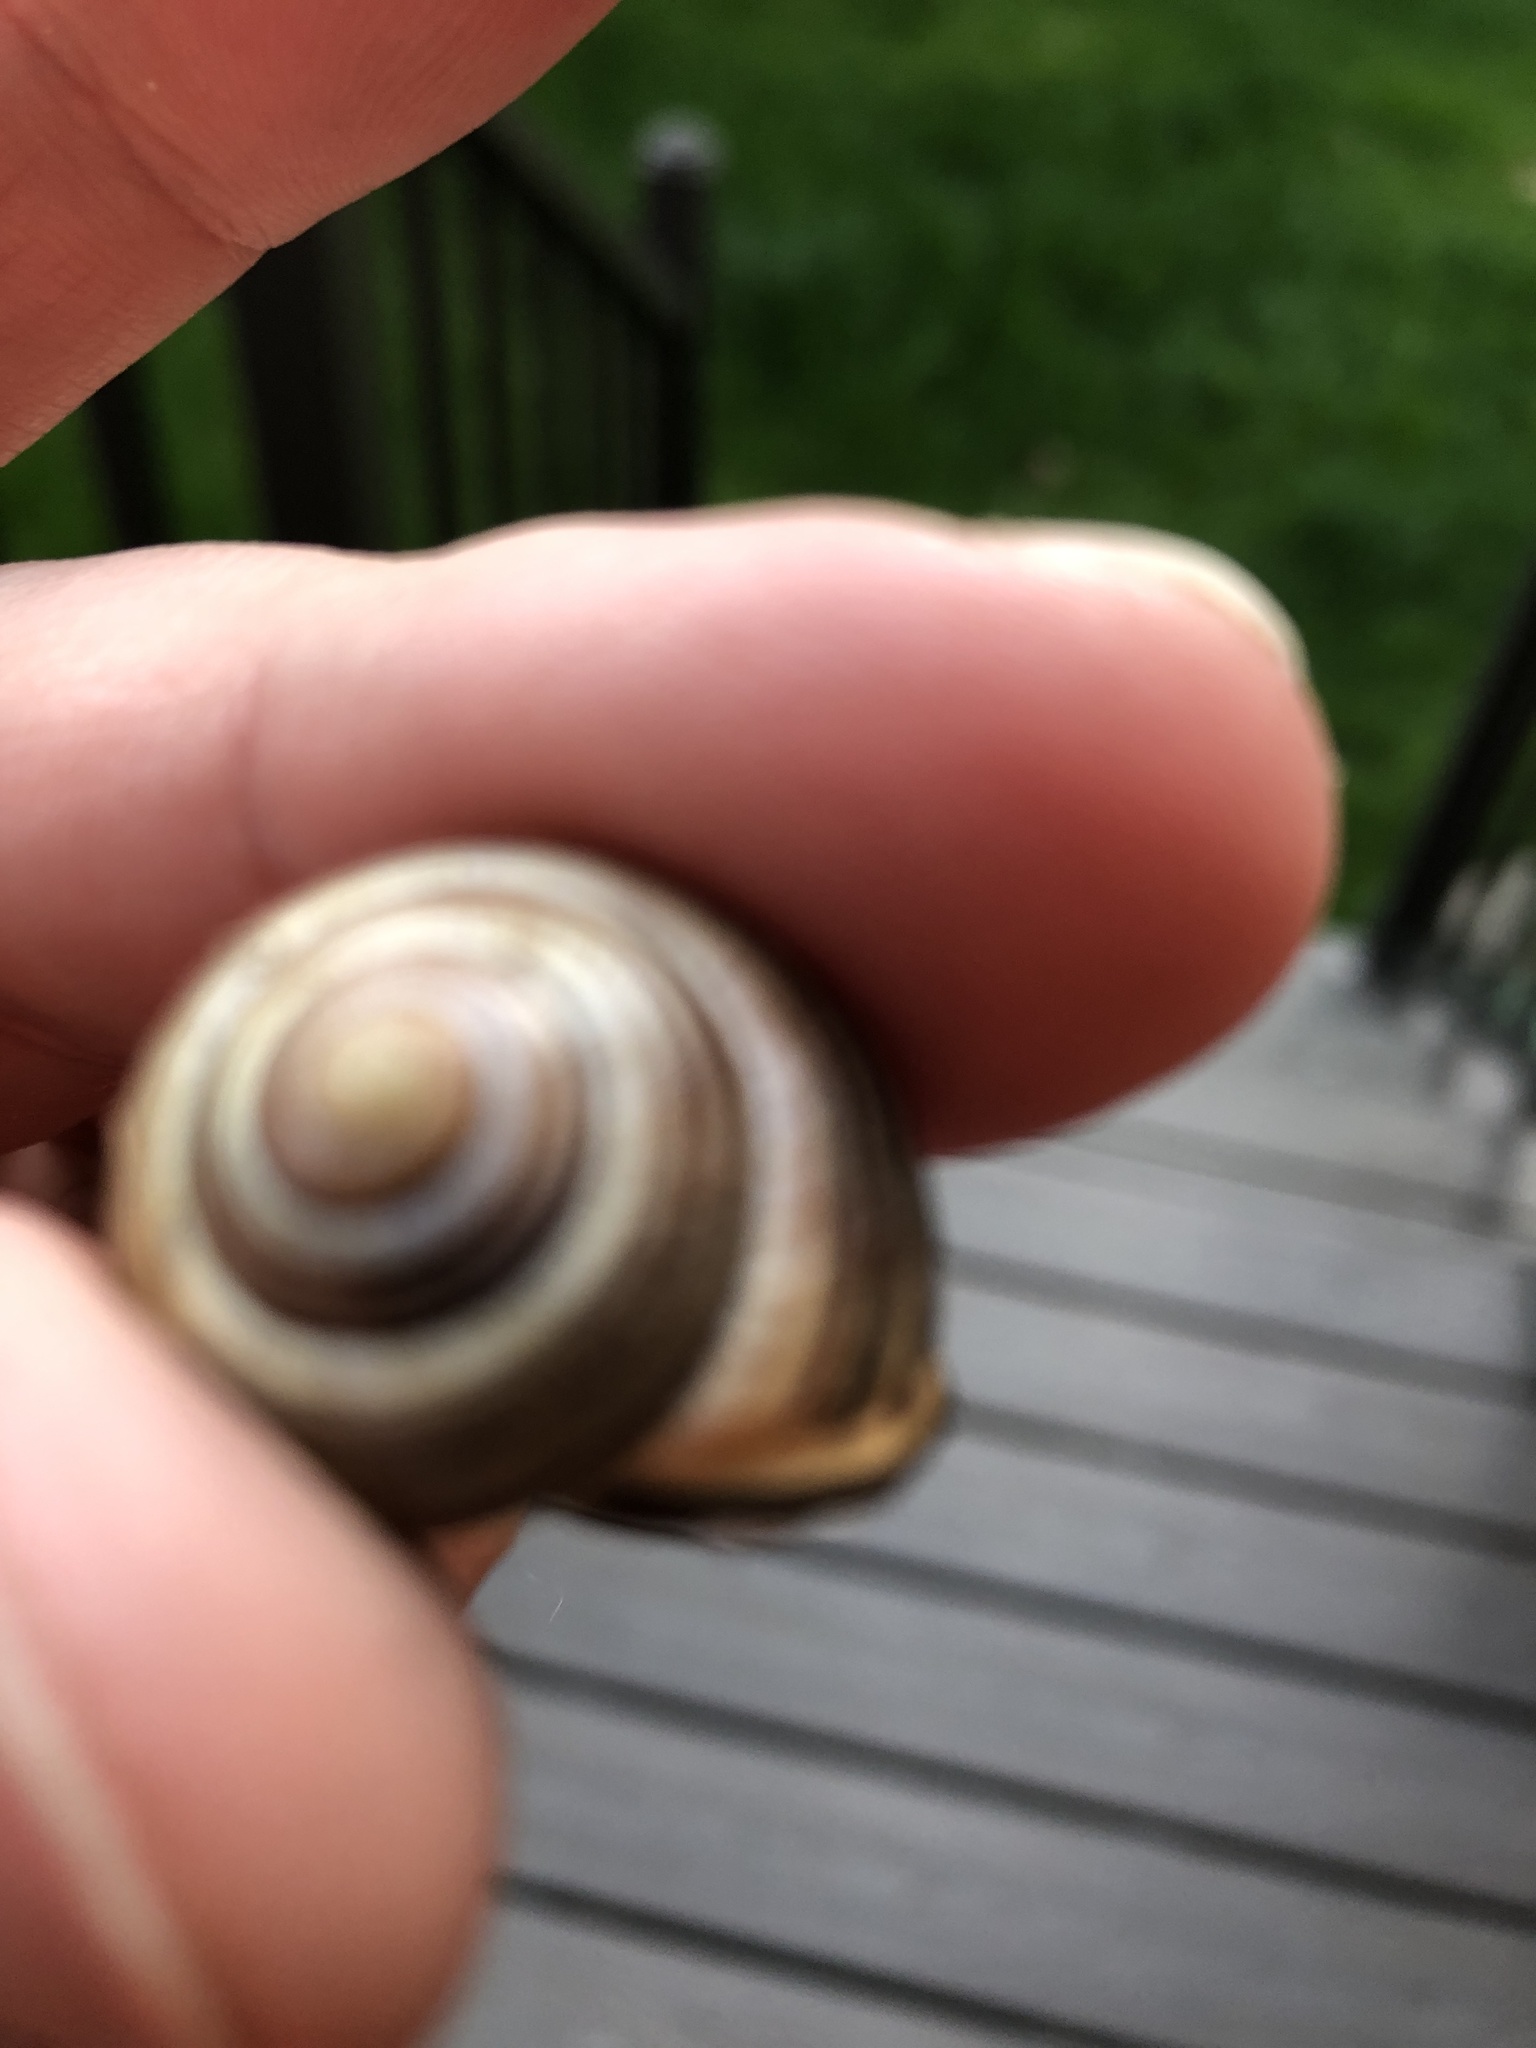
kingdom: Animalia
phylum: Mollusca
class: Gastropoda
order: Stylommatophora
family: Helicidae
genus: Cepaea
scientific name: Cepaea nemoralis
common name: Grovesnail
